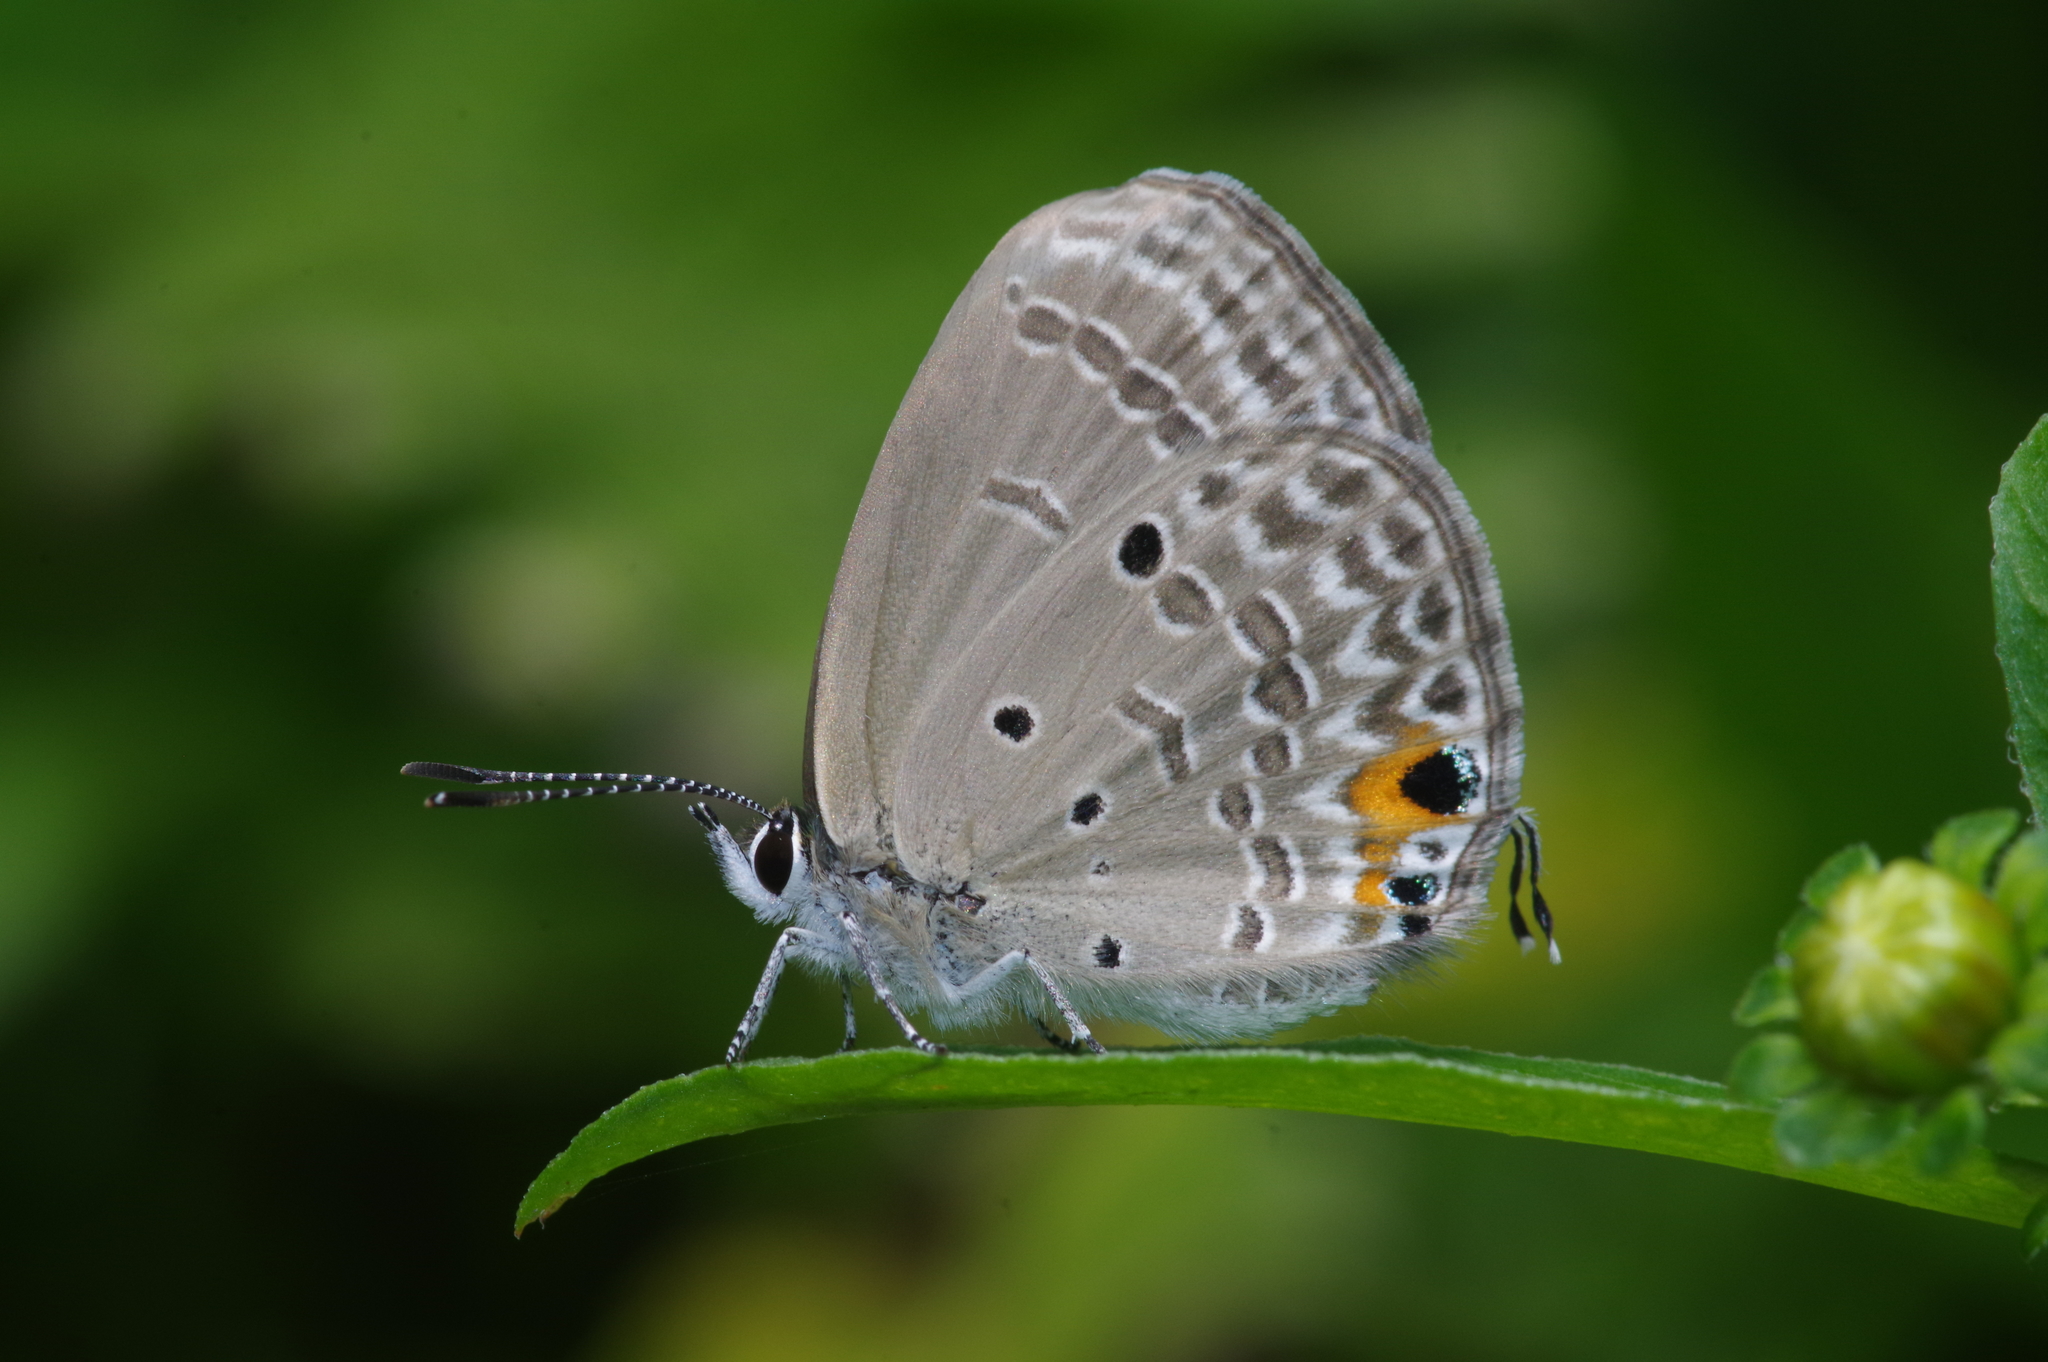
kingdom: Animalia
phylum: Arthropoda
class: Insecta
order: Lepidoptera
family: Lycaenidae
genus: Luthrodes
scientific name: Luthrodes pandava
